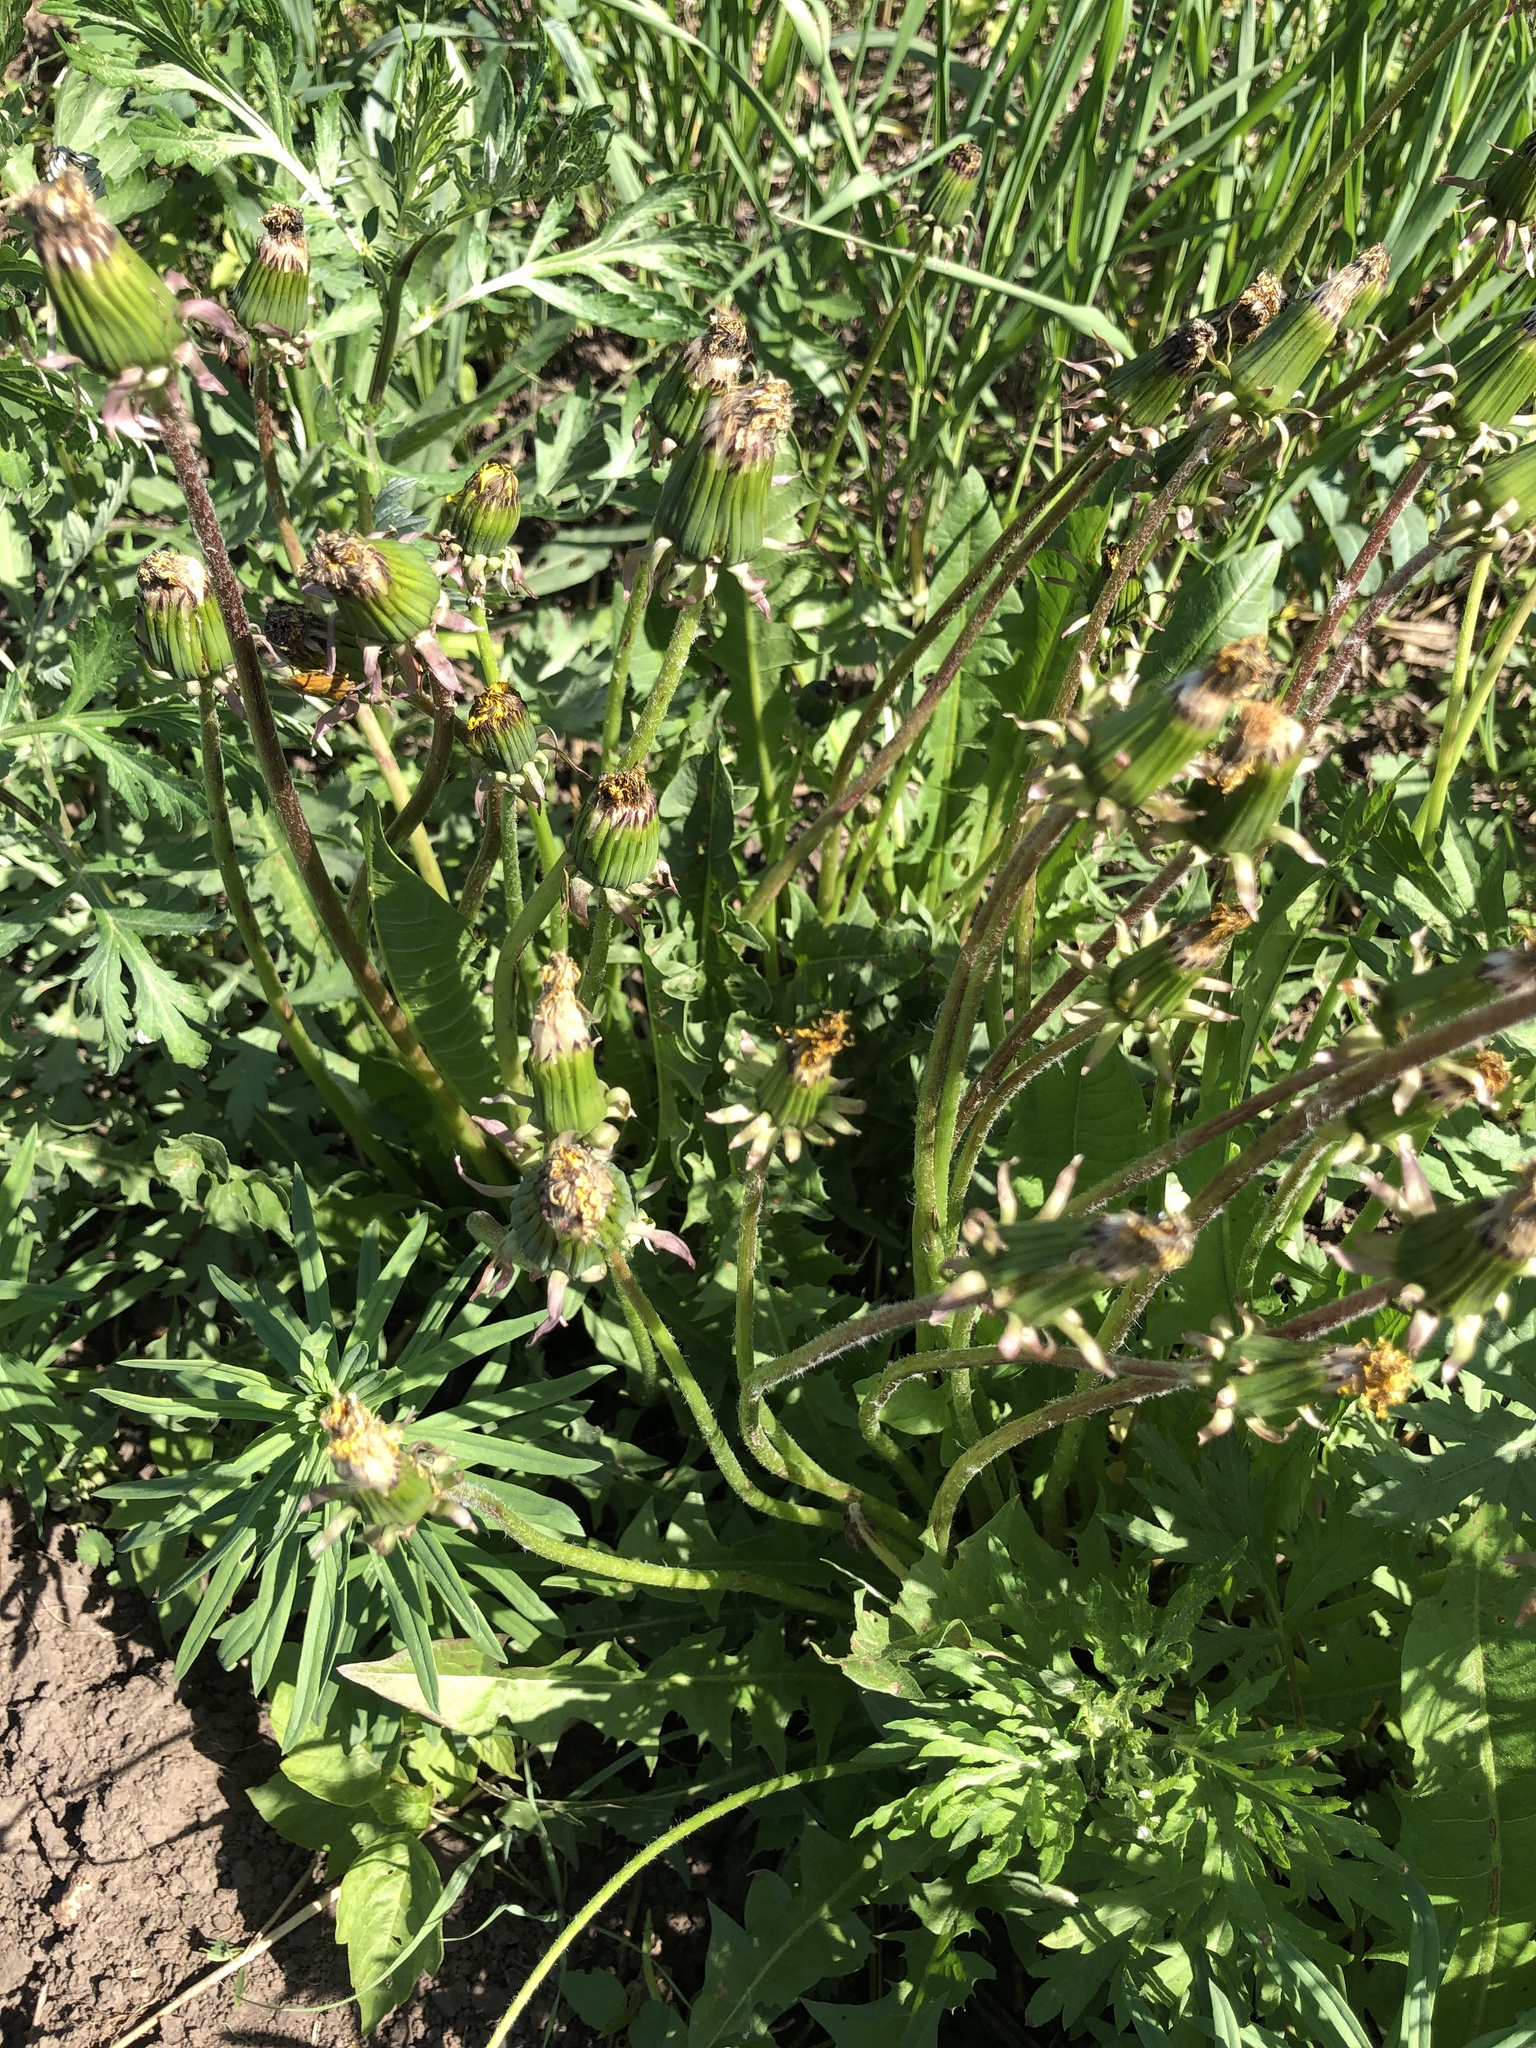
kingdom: Plantae
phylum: Tracheophyta
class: Magnoliopsida
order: Asterales
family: Asteraceae
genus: Taraxacum
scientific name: Taraxacum officinale
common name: Common dandelion
